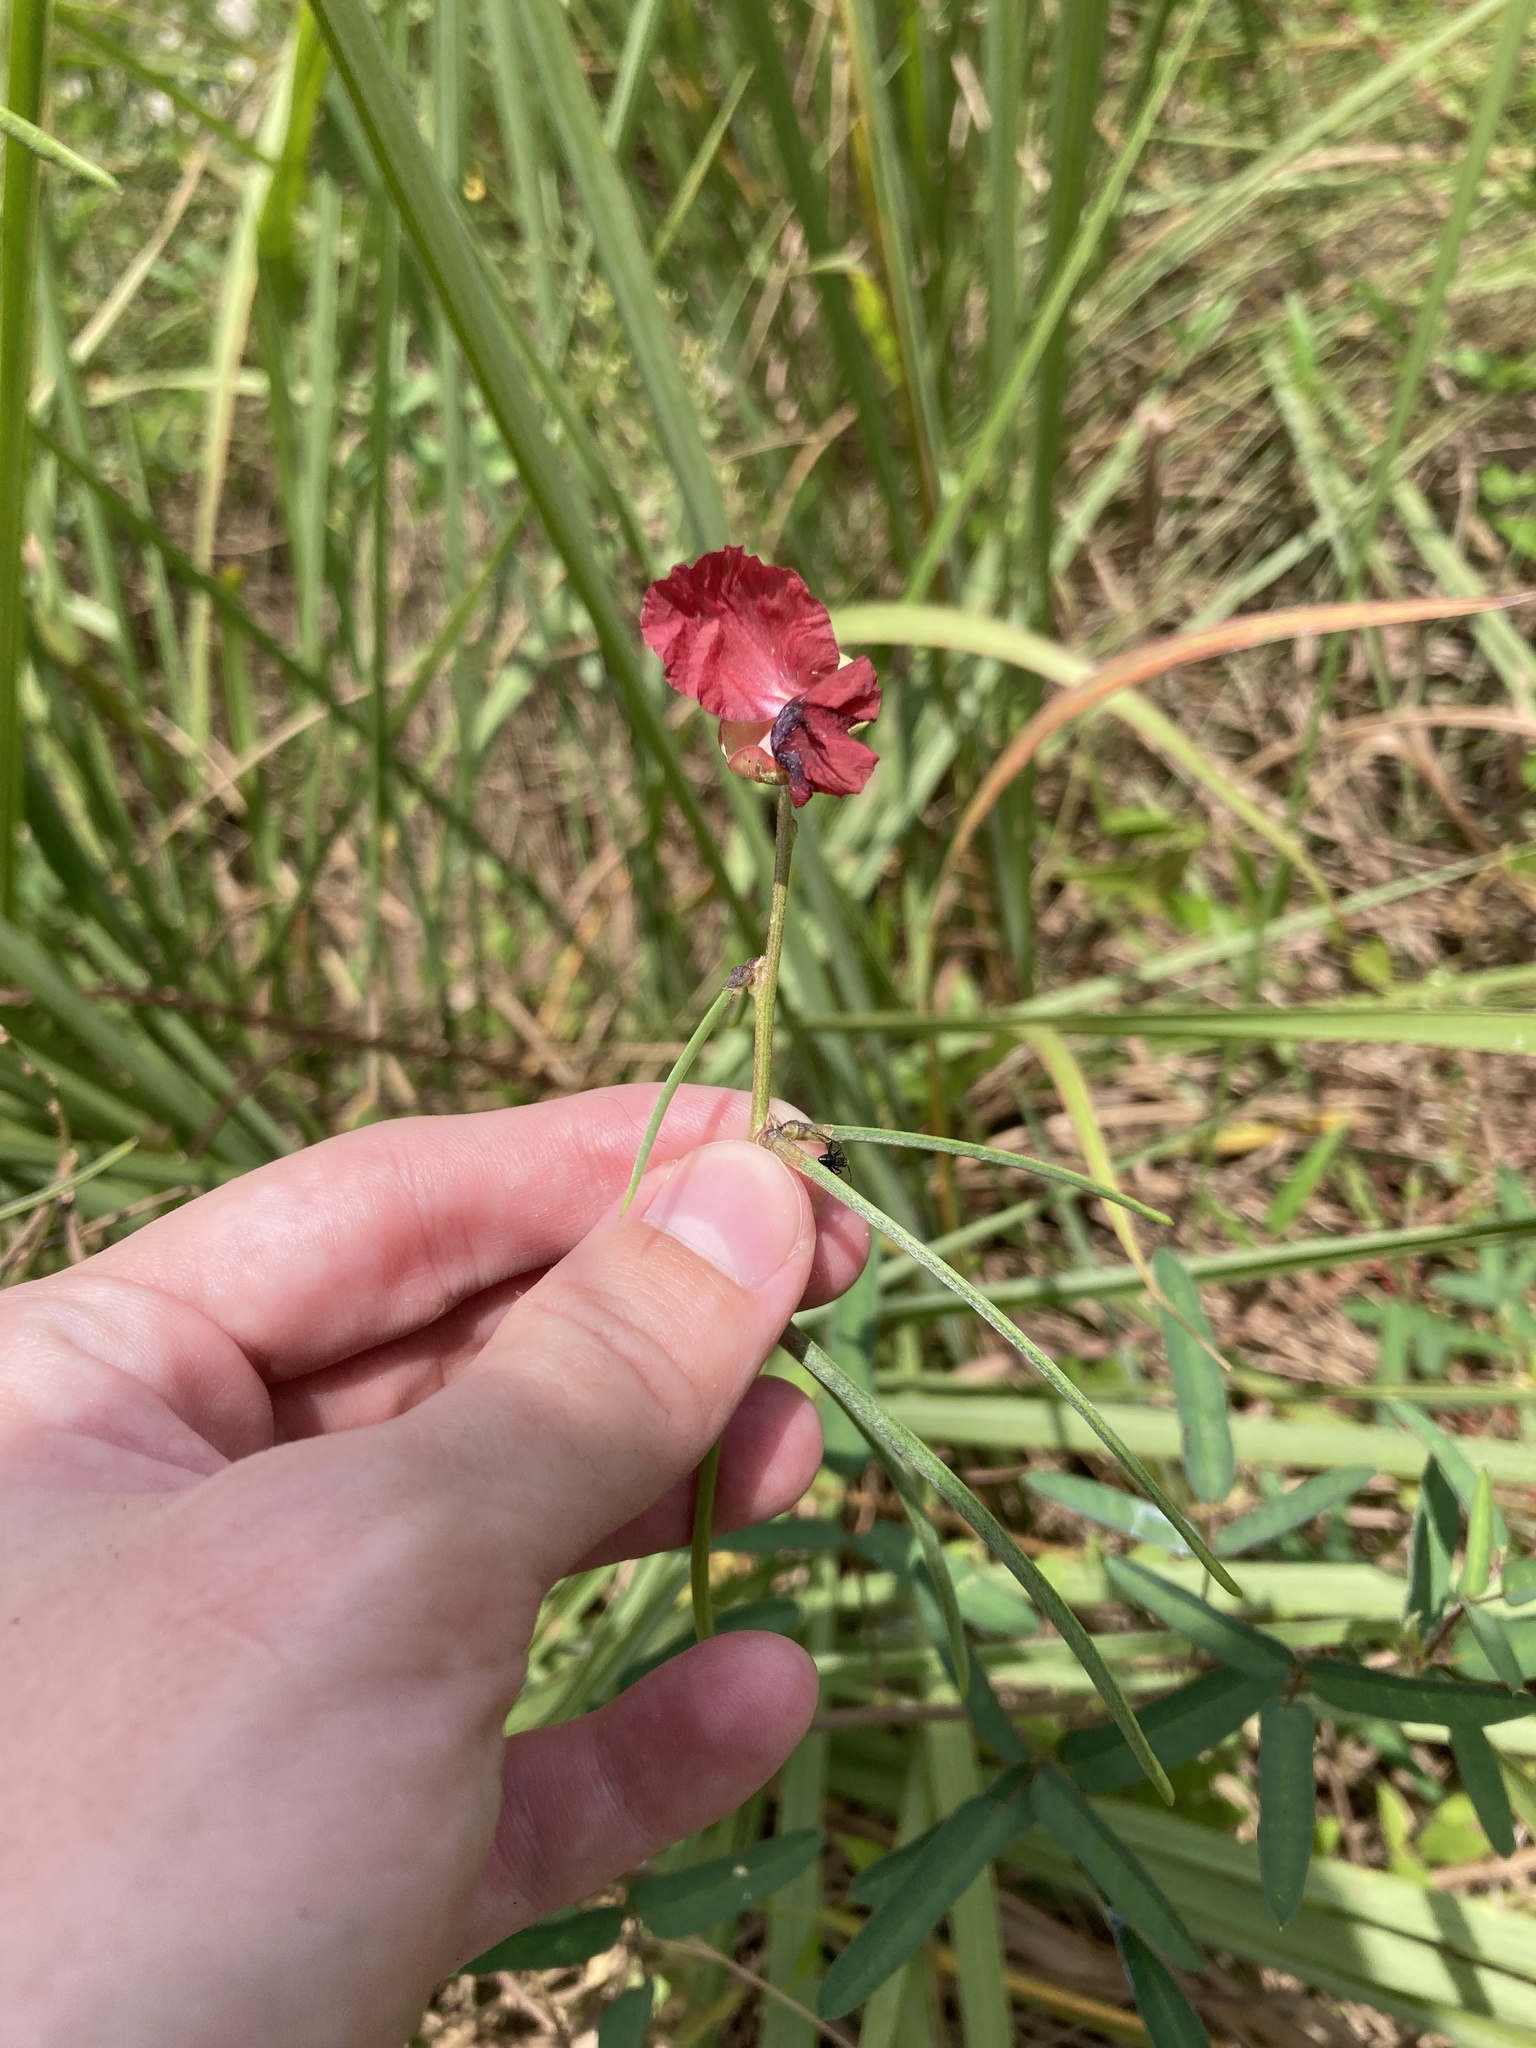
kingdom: Plantae
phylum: Tracheophyta
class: Magnoliopsida
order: Fabales
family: Fabaceae
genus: Macroptilium
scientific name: Macroptilium lathyroides
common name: Wild bushbean
